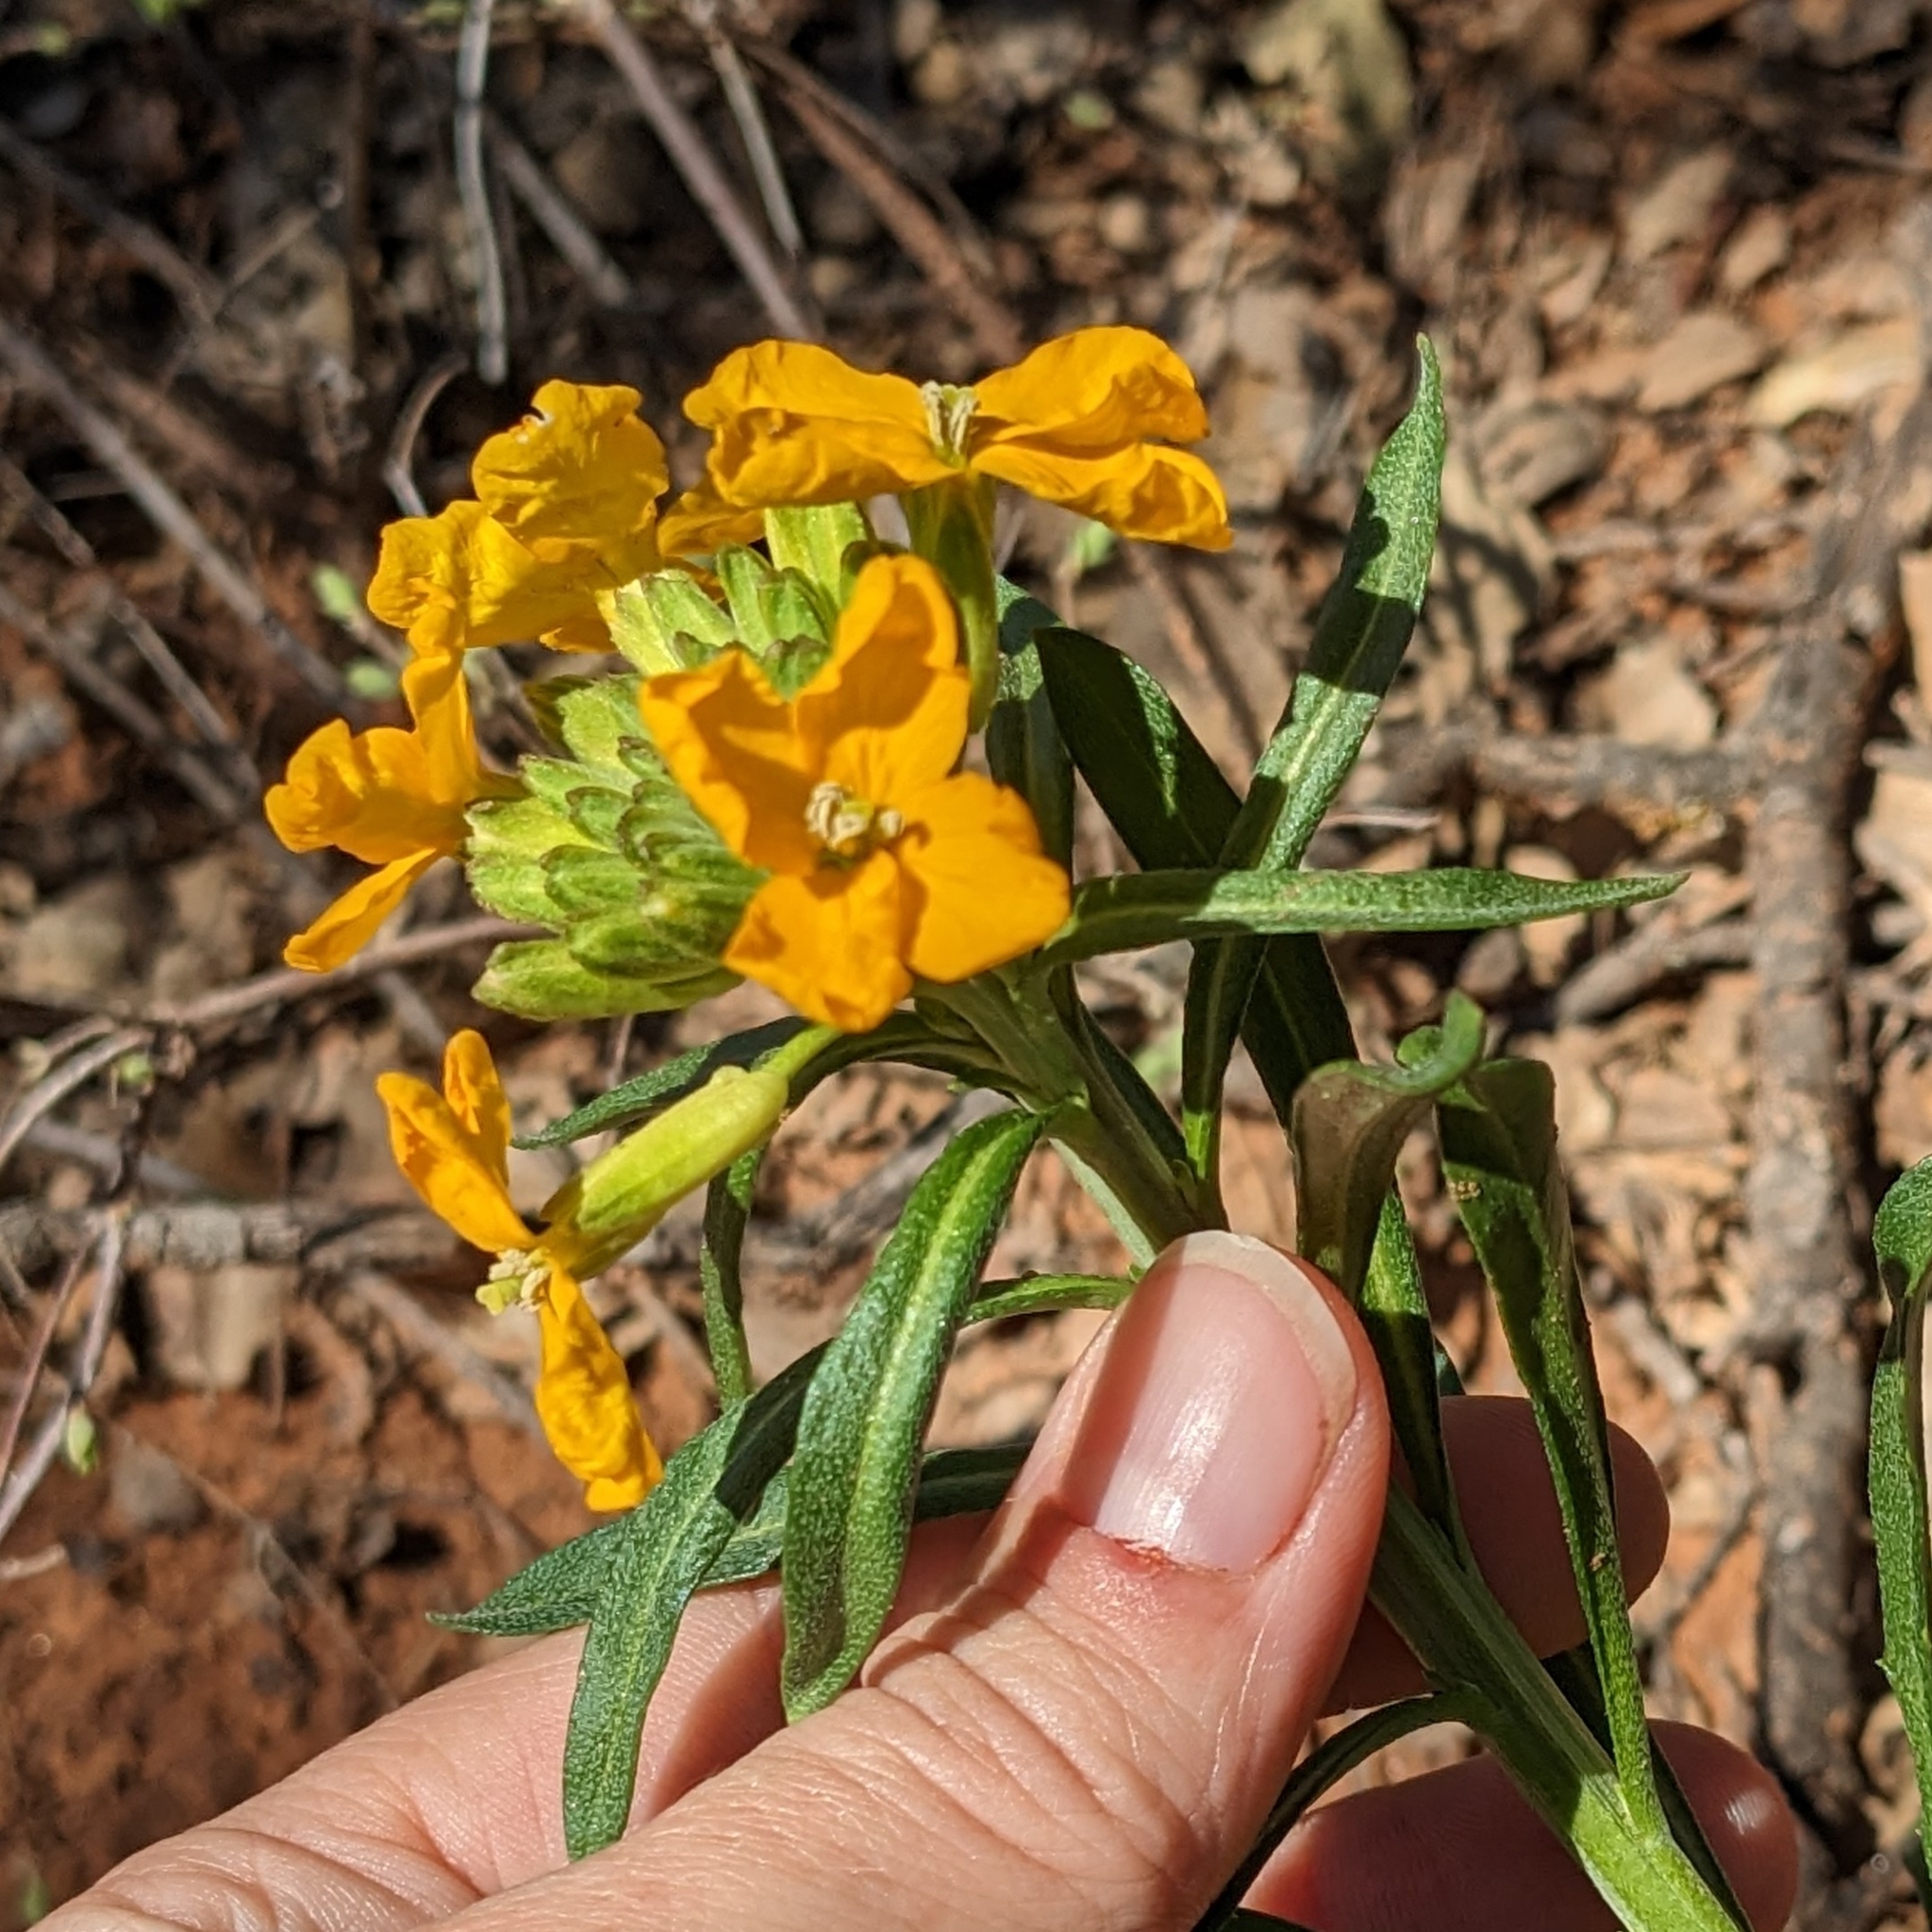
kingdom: Plantae
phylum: Tracheophyta
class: Magnoliopsida
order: Brassicales
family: Brassicaceae
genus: Erysimum
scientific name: Erysimum capitatum
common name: Western wallflower
